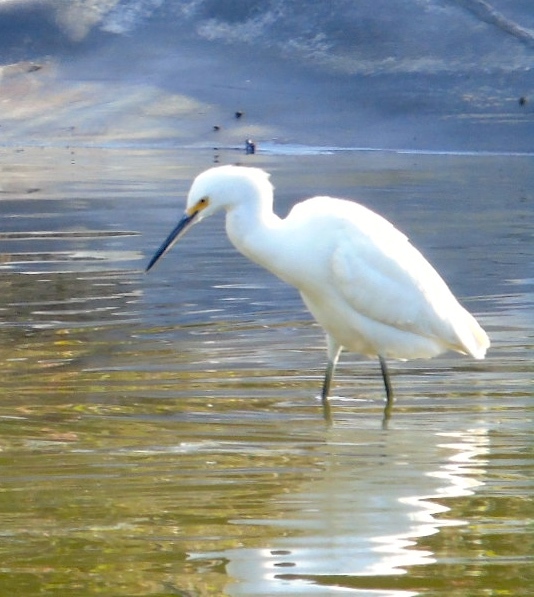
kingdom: Animalia
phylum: Chordata
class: Aves
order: Pelecaniformes
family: Ardeidae
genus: Egretta
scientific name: Egretta thula
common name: Snowy egret
